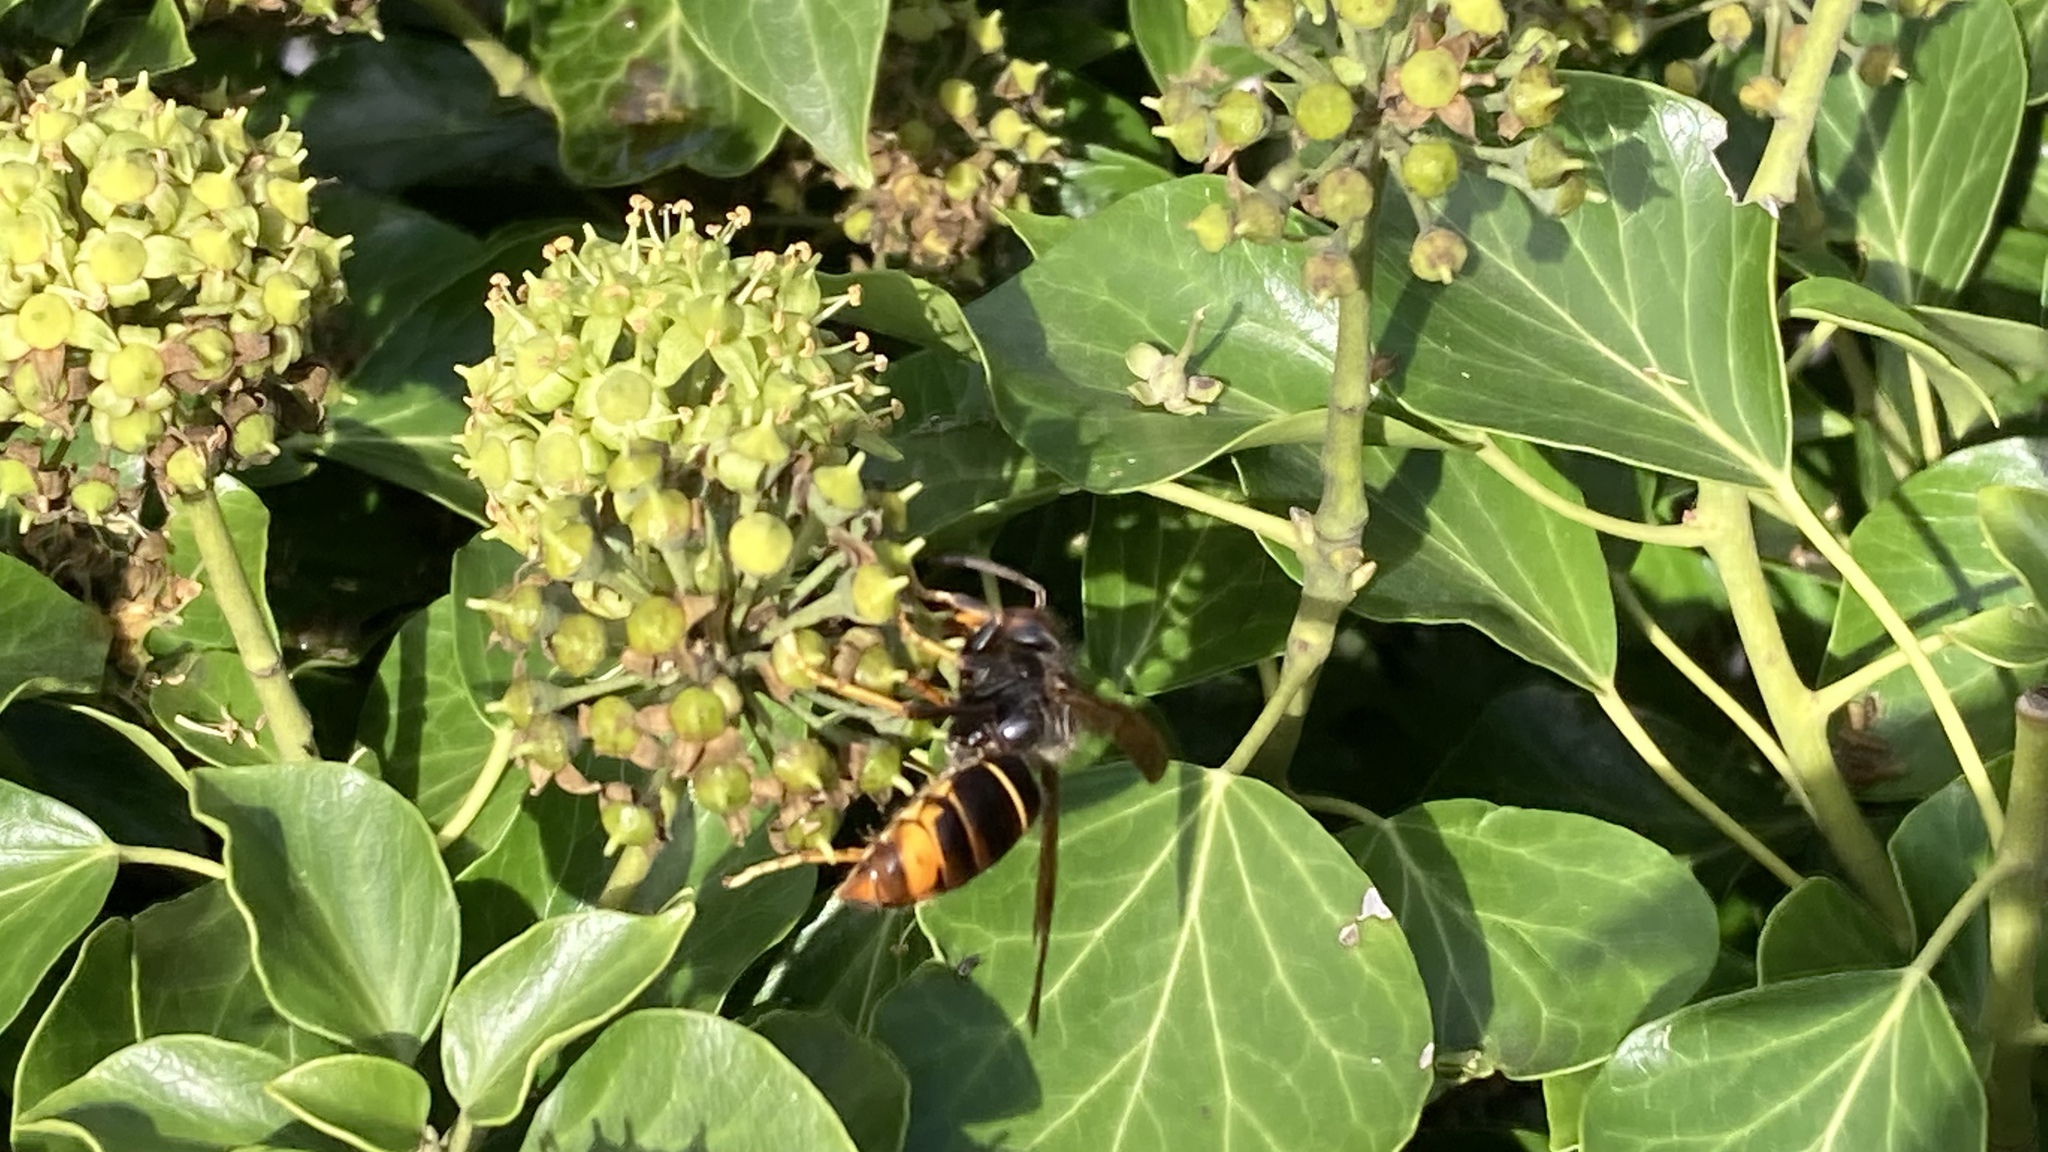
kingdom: Animalia
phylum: Arthropoda
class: Insecta
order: Hymenoptera
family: Vespidae
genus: Vespa
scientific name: Vespa velutina
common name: Asian hornet
